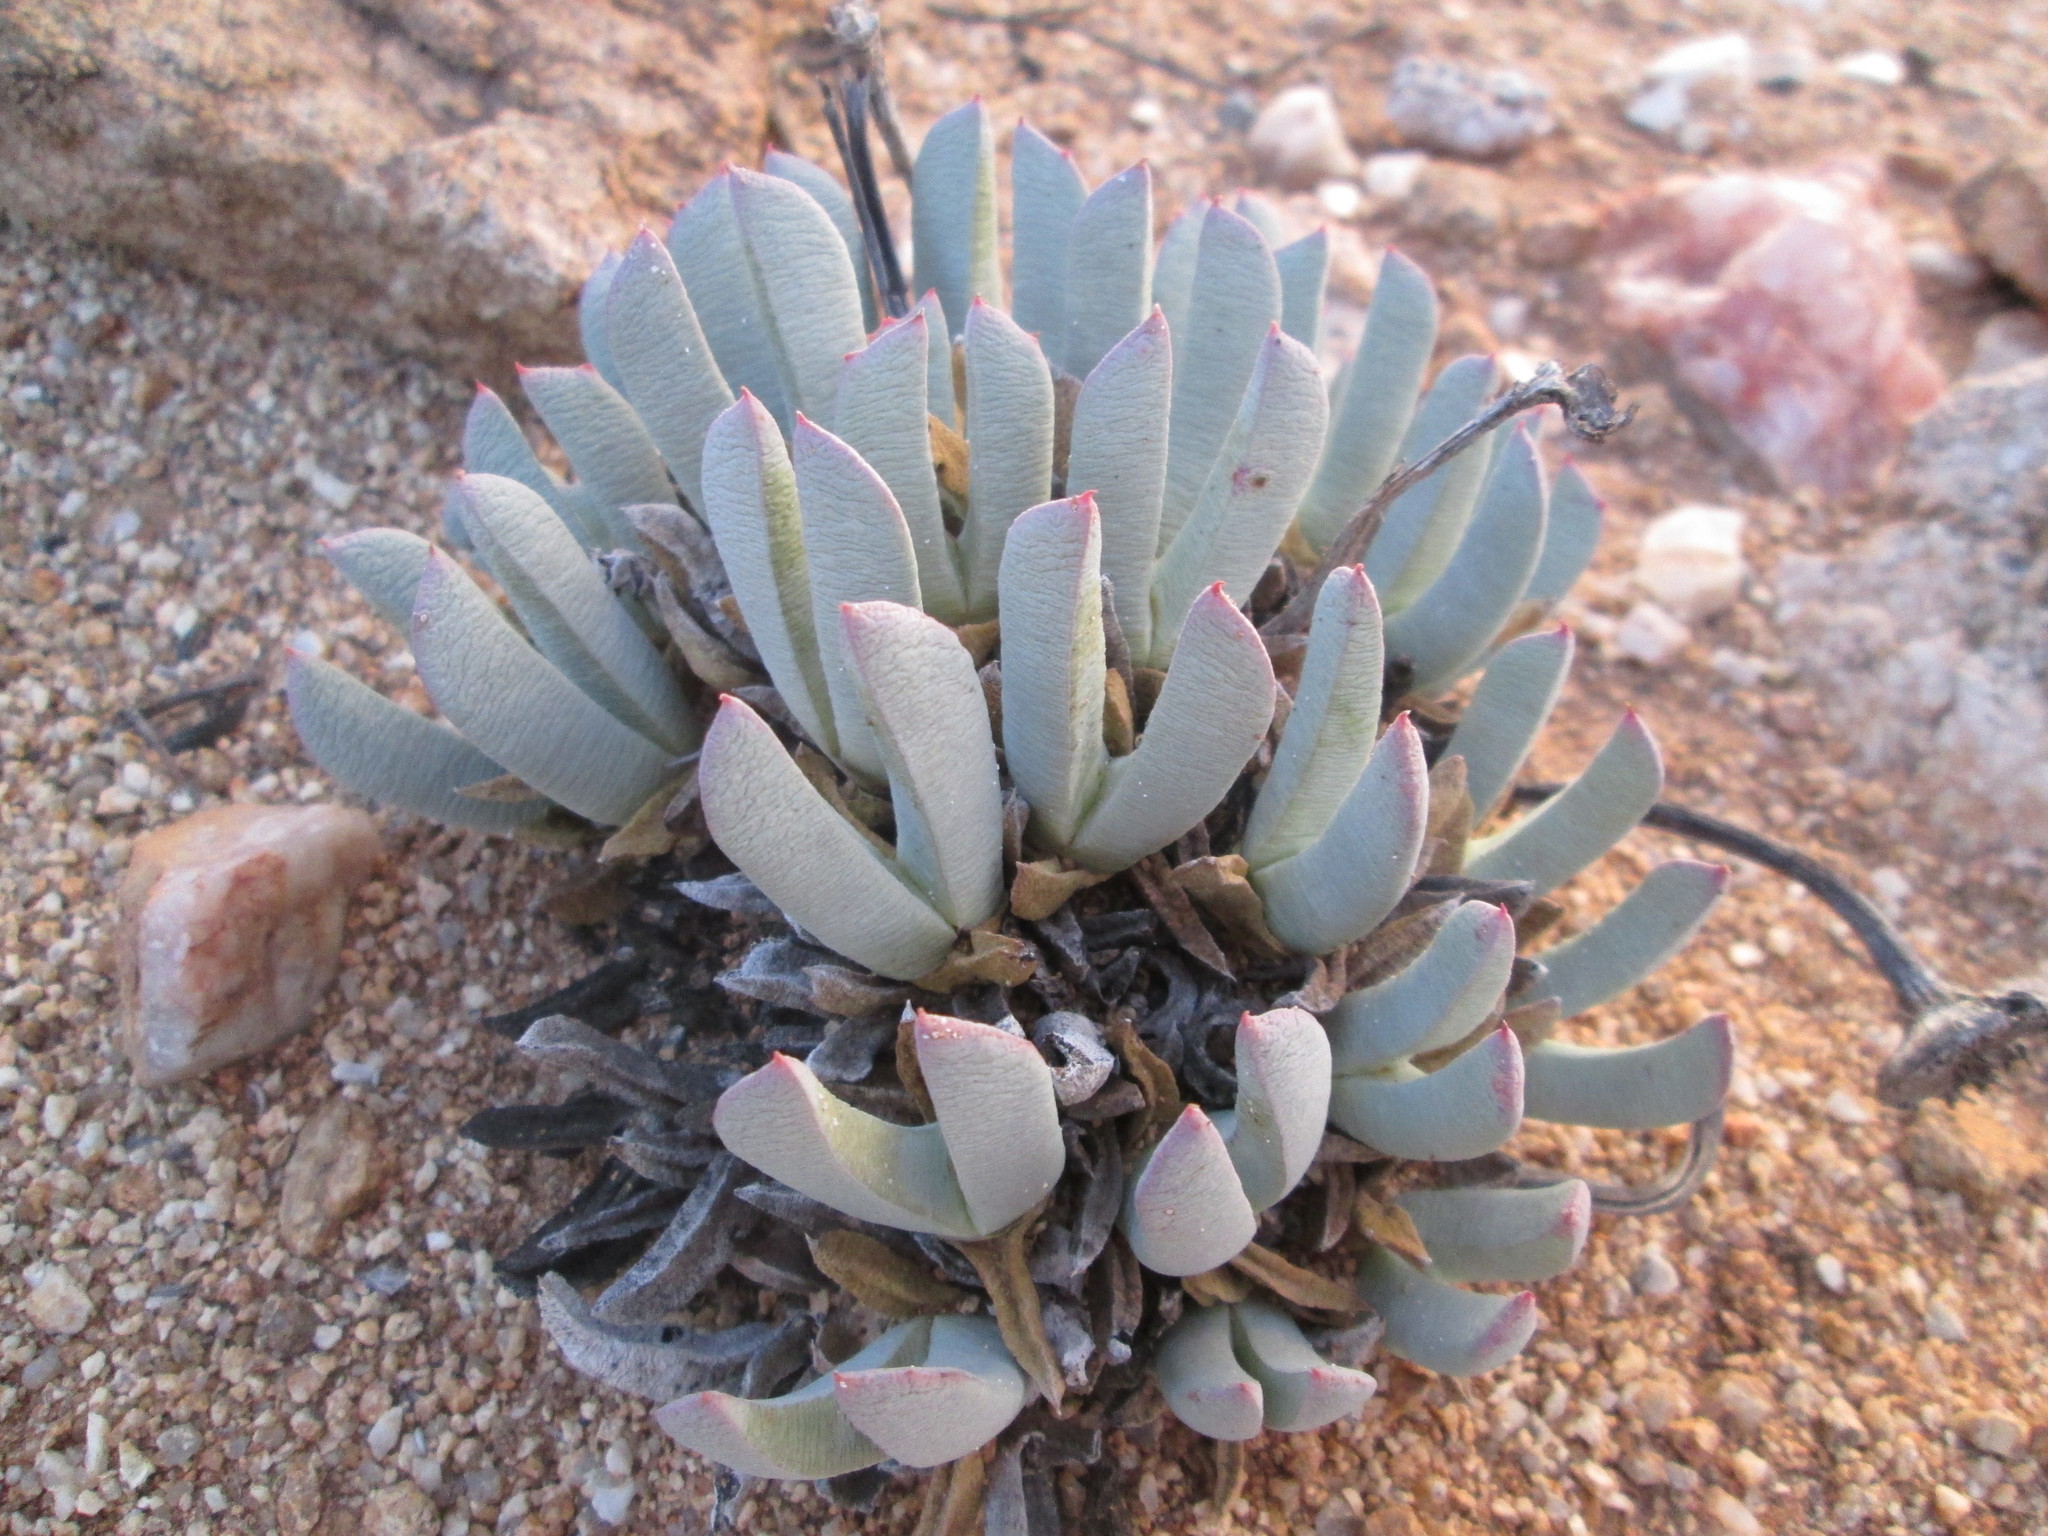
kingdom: Plantae
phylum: Tracheophyta
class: Magnoliopsida
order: Caryophyllales
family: Aizoaceae
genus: Cheiridopsis
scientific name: Cheiridopsis denticulata
